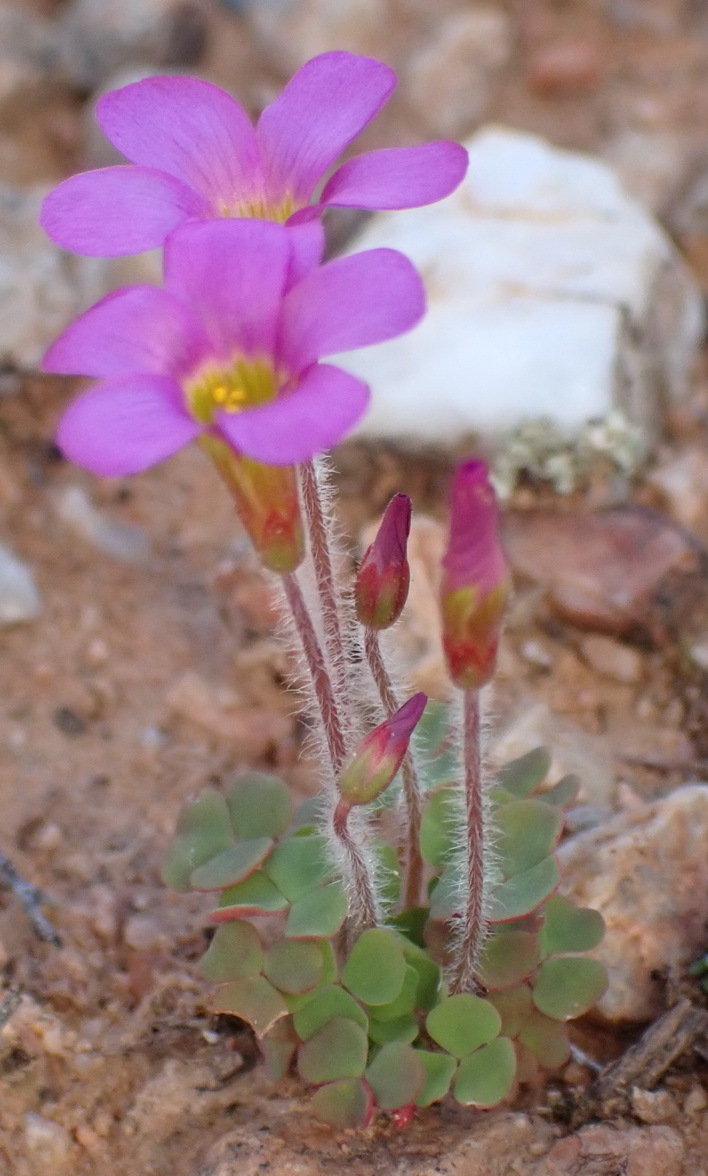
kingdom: Plantae
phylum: Tracheophyta
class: Magnoliopsida
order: Oxalidales
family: Oxalidaceae
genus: Oxalis
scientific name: Oxalis punctata
